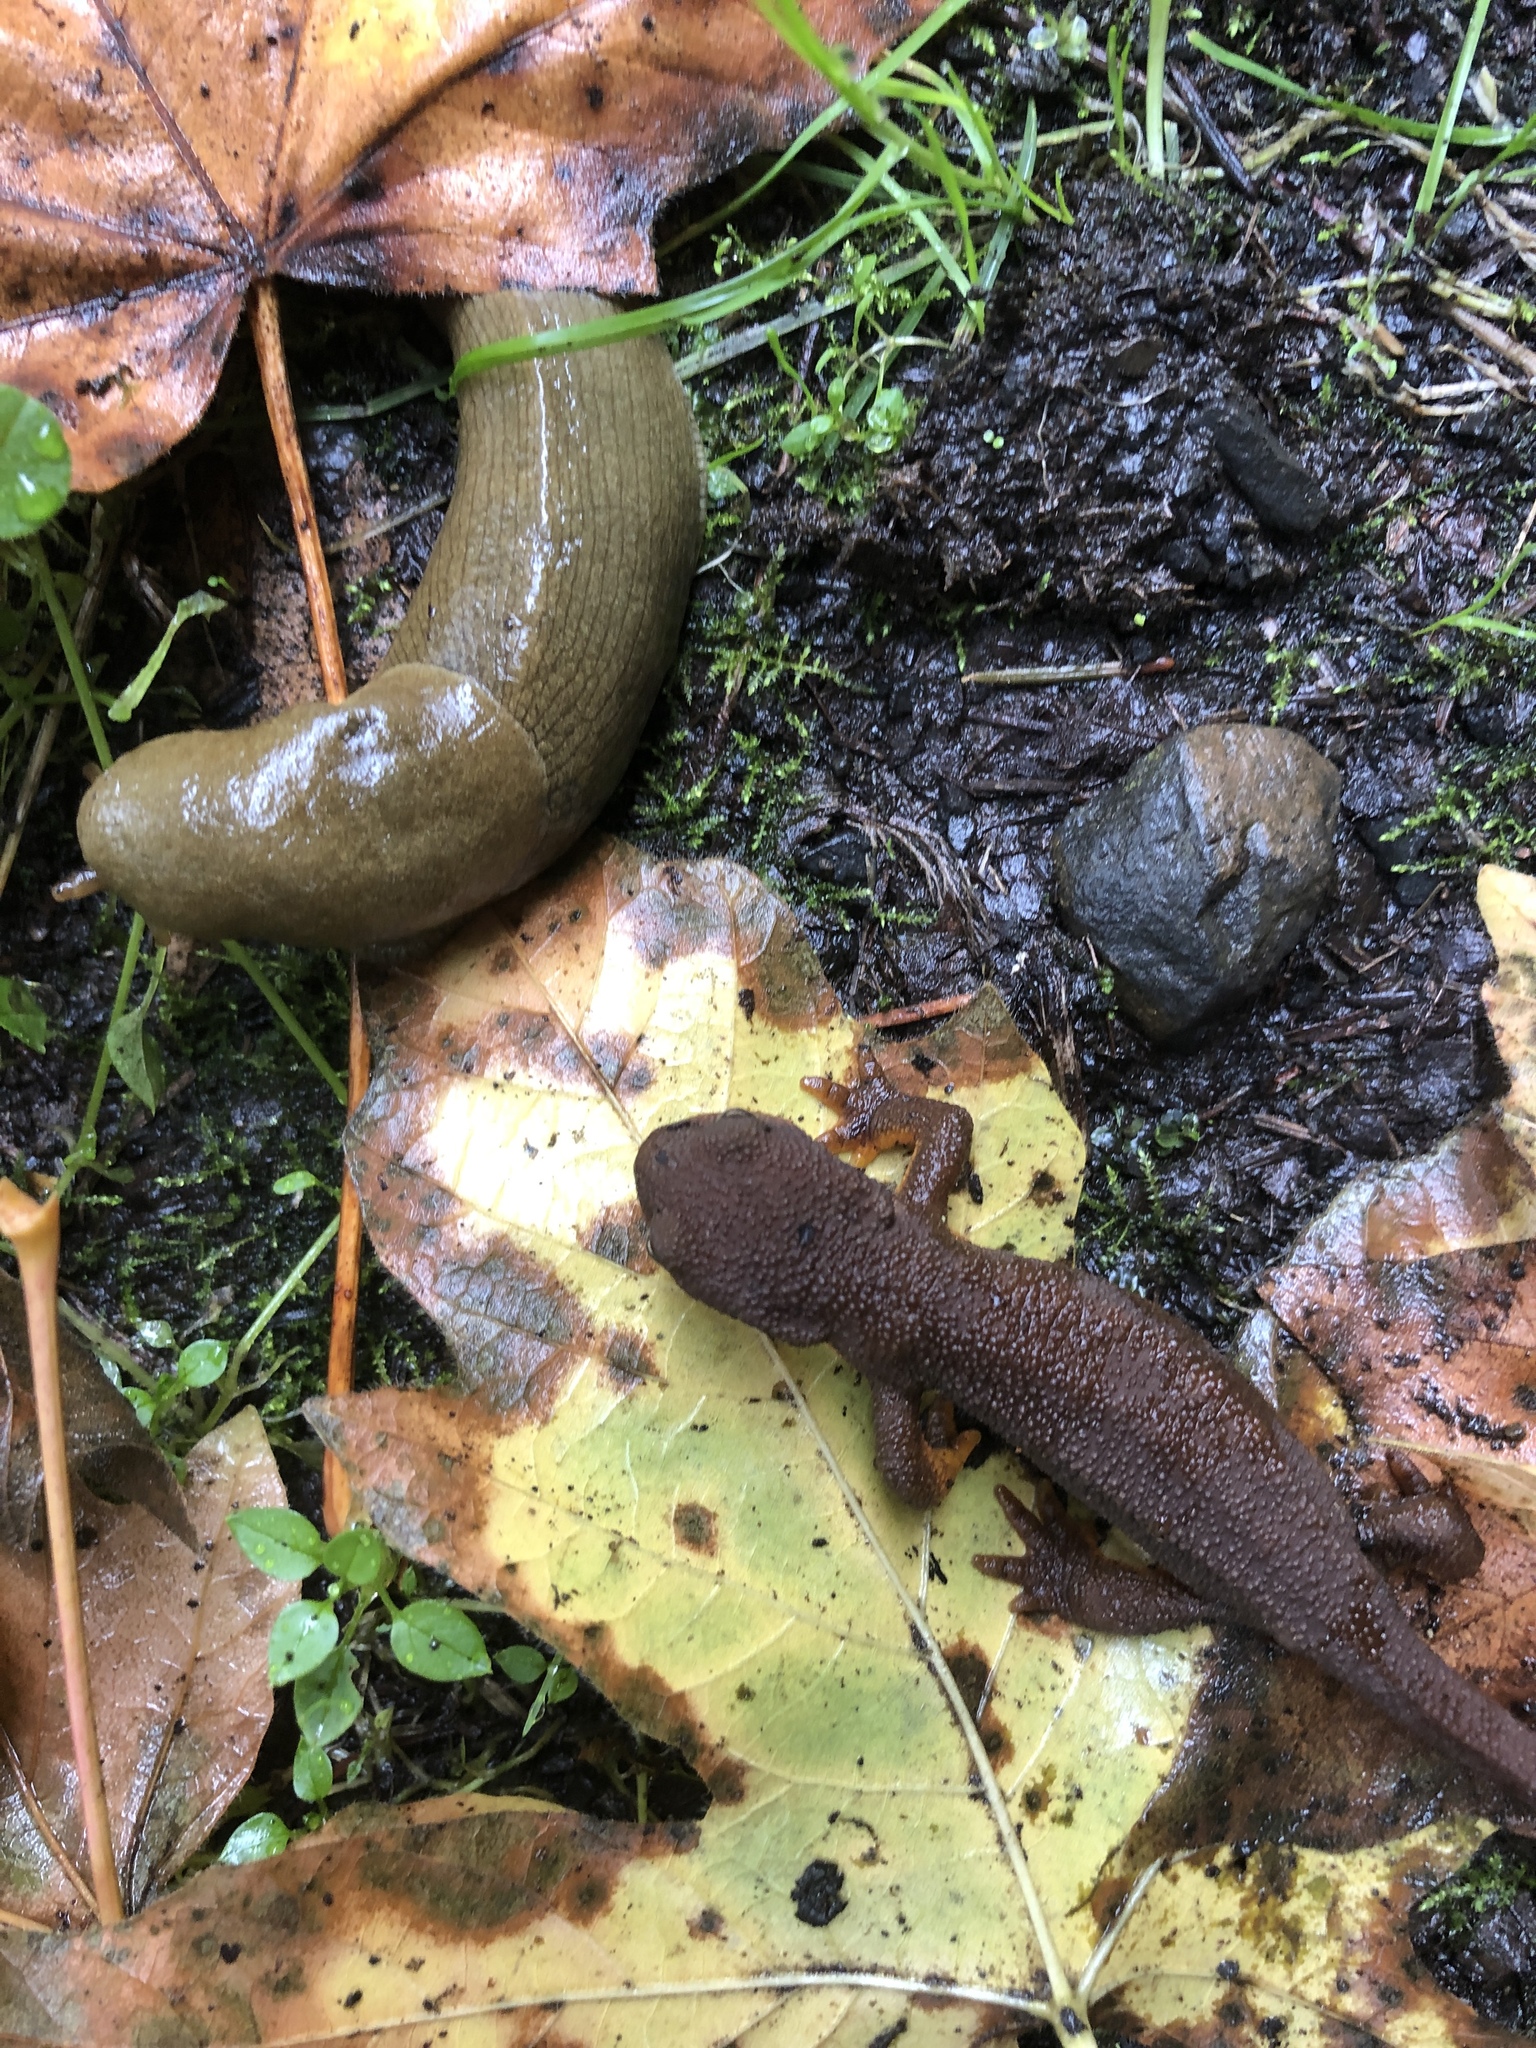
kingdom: Animalia
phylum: Chordata
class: Amphibia
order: Caudata
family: Salamandridae
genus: Taricha
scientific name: Taricha granulosa
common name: Roughskin newt
